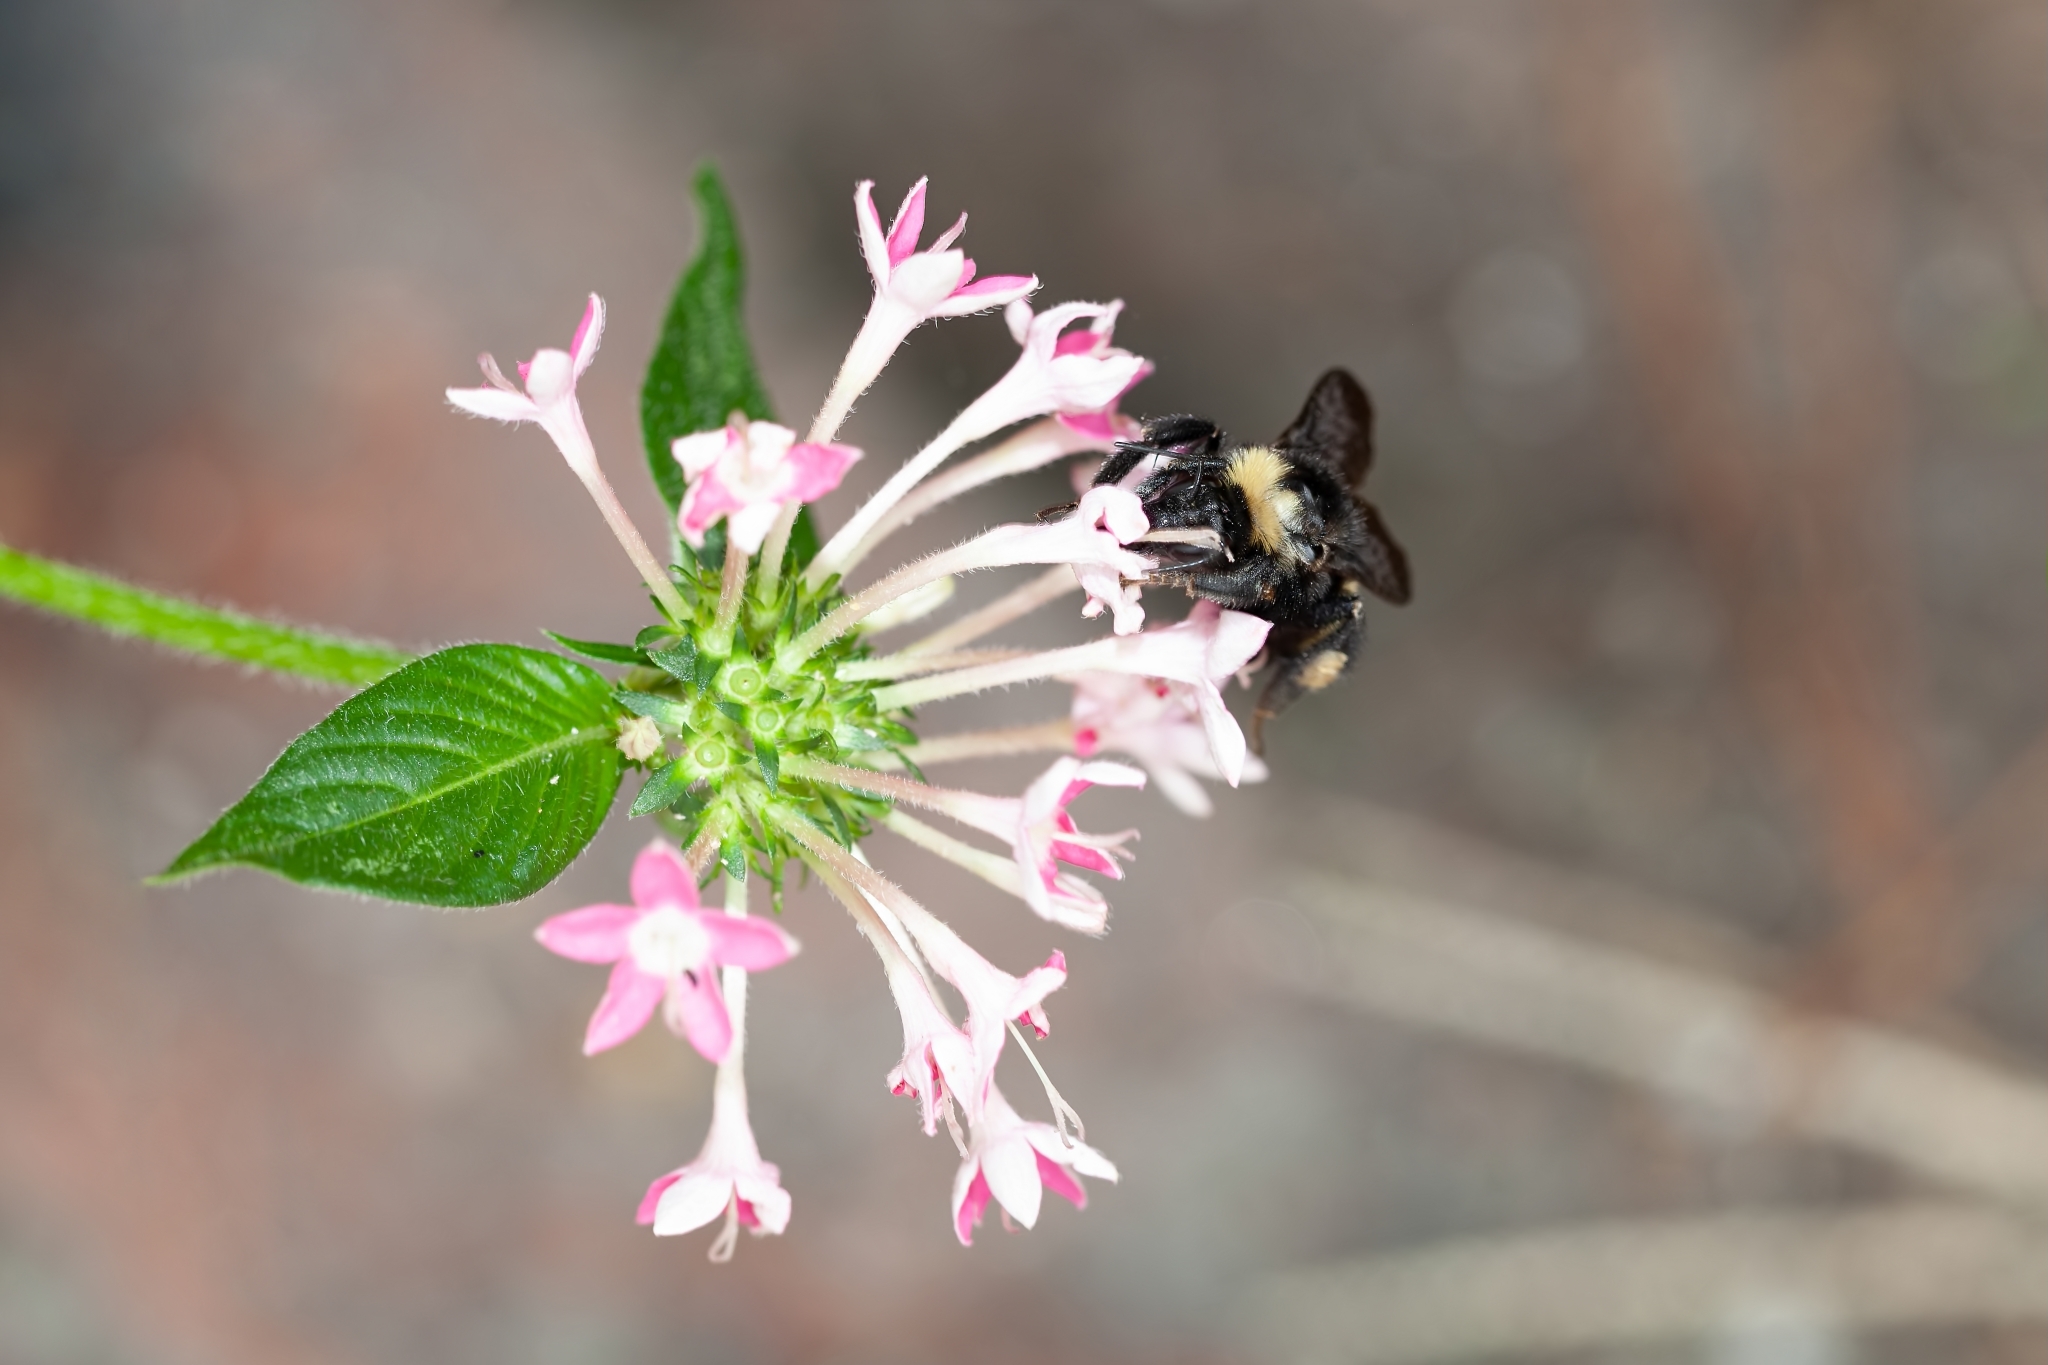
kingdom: Animalia
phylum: Arthropoda
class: Insecta
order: Hymenoptera
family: Apidae
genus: Bombus
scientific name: Bombus pensylvanicus
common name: Bumble bee
